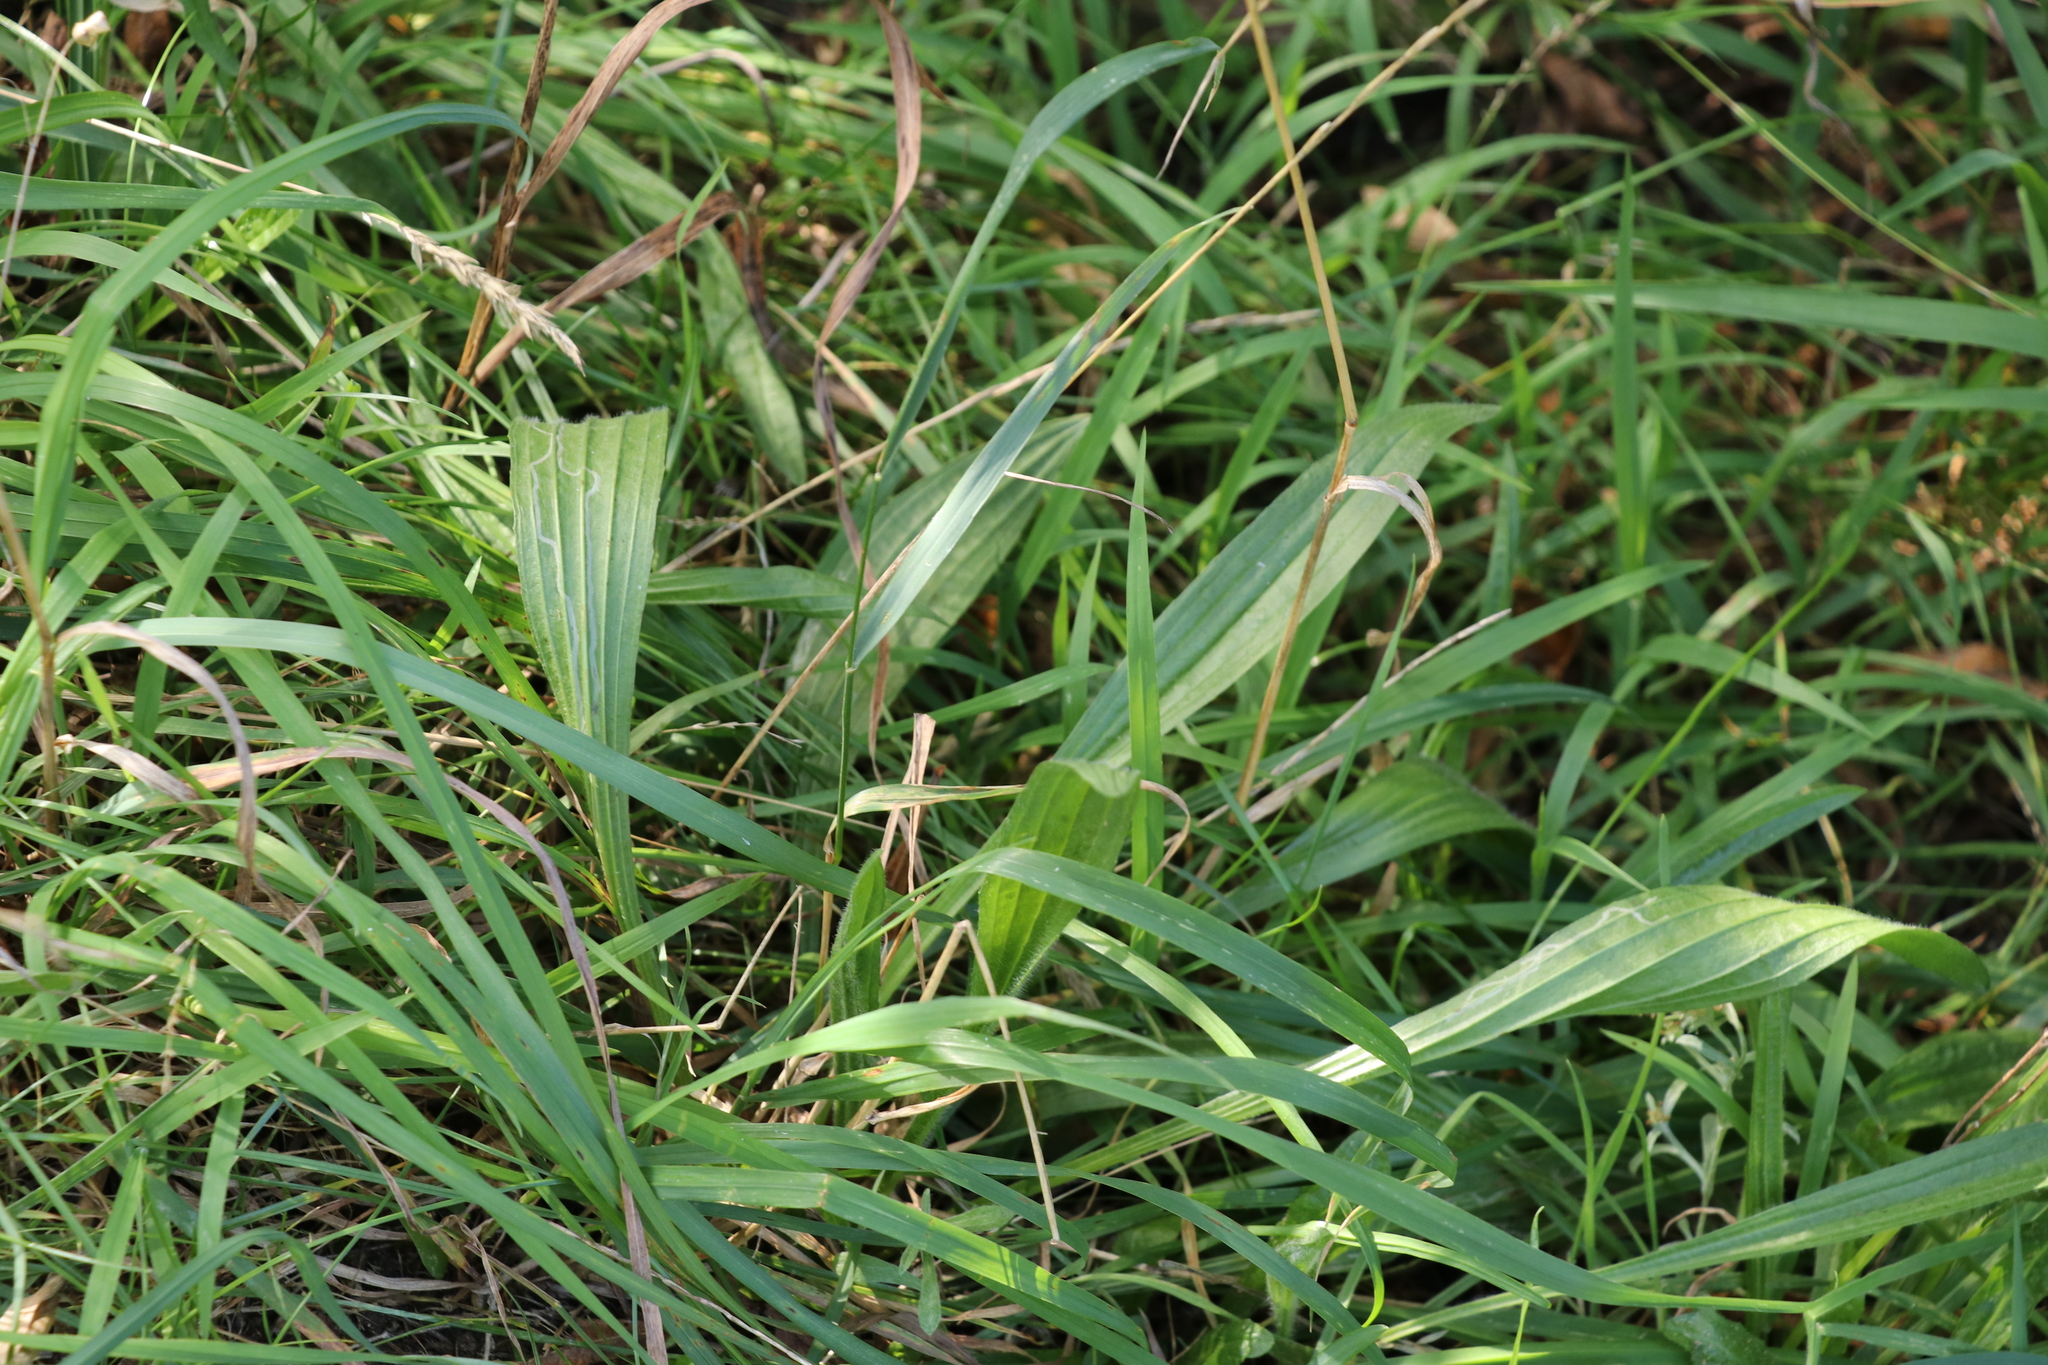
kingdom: Plantae
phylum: Tracheophyta
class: Magnoliopsida
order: Lamiales
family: Plantaginaceae
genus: Plantago
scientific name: Plantago lanceolata
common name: Ribwort plantain
